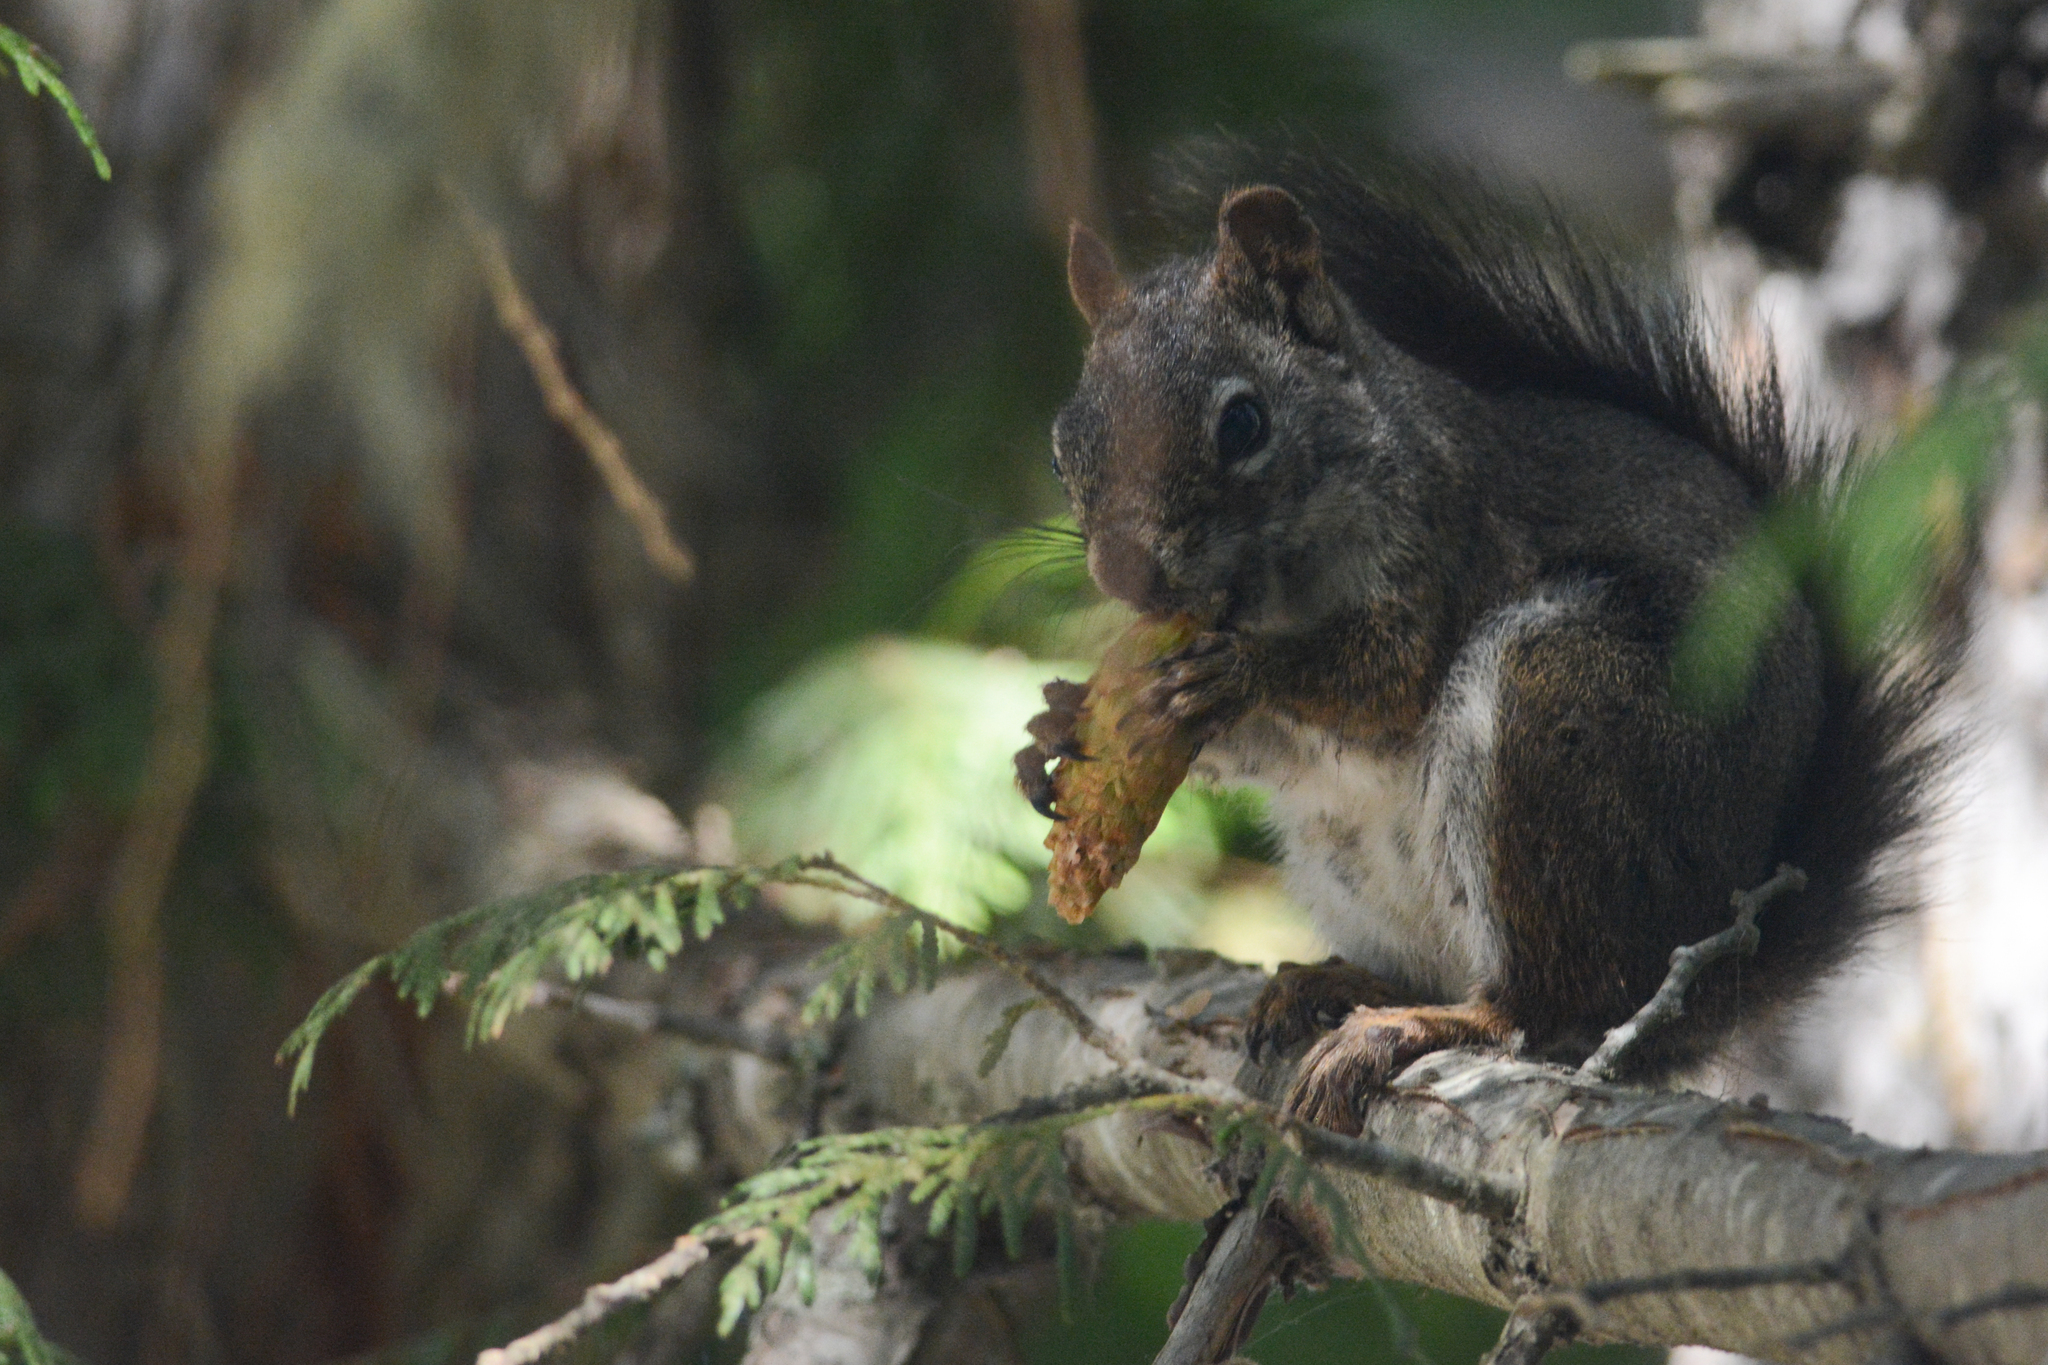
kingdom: Animalia
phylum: Chordata
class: Mammalia
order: Rodentia
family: Sciuridae
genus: Tamiasciurus
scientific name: Tamiasciurus hudsonicus
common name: Red squirrel
